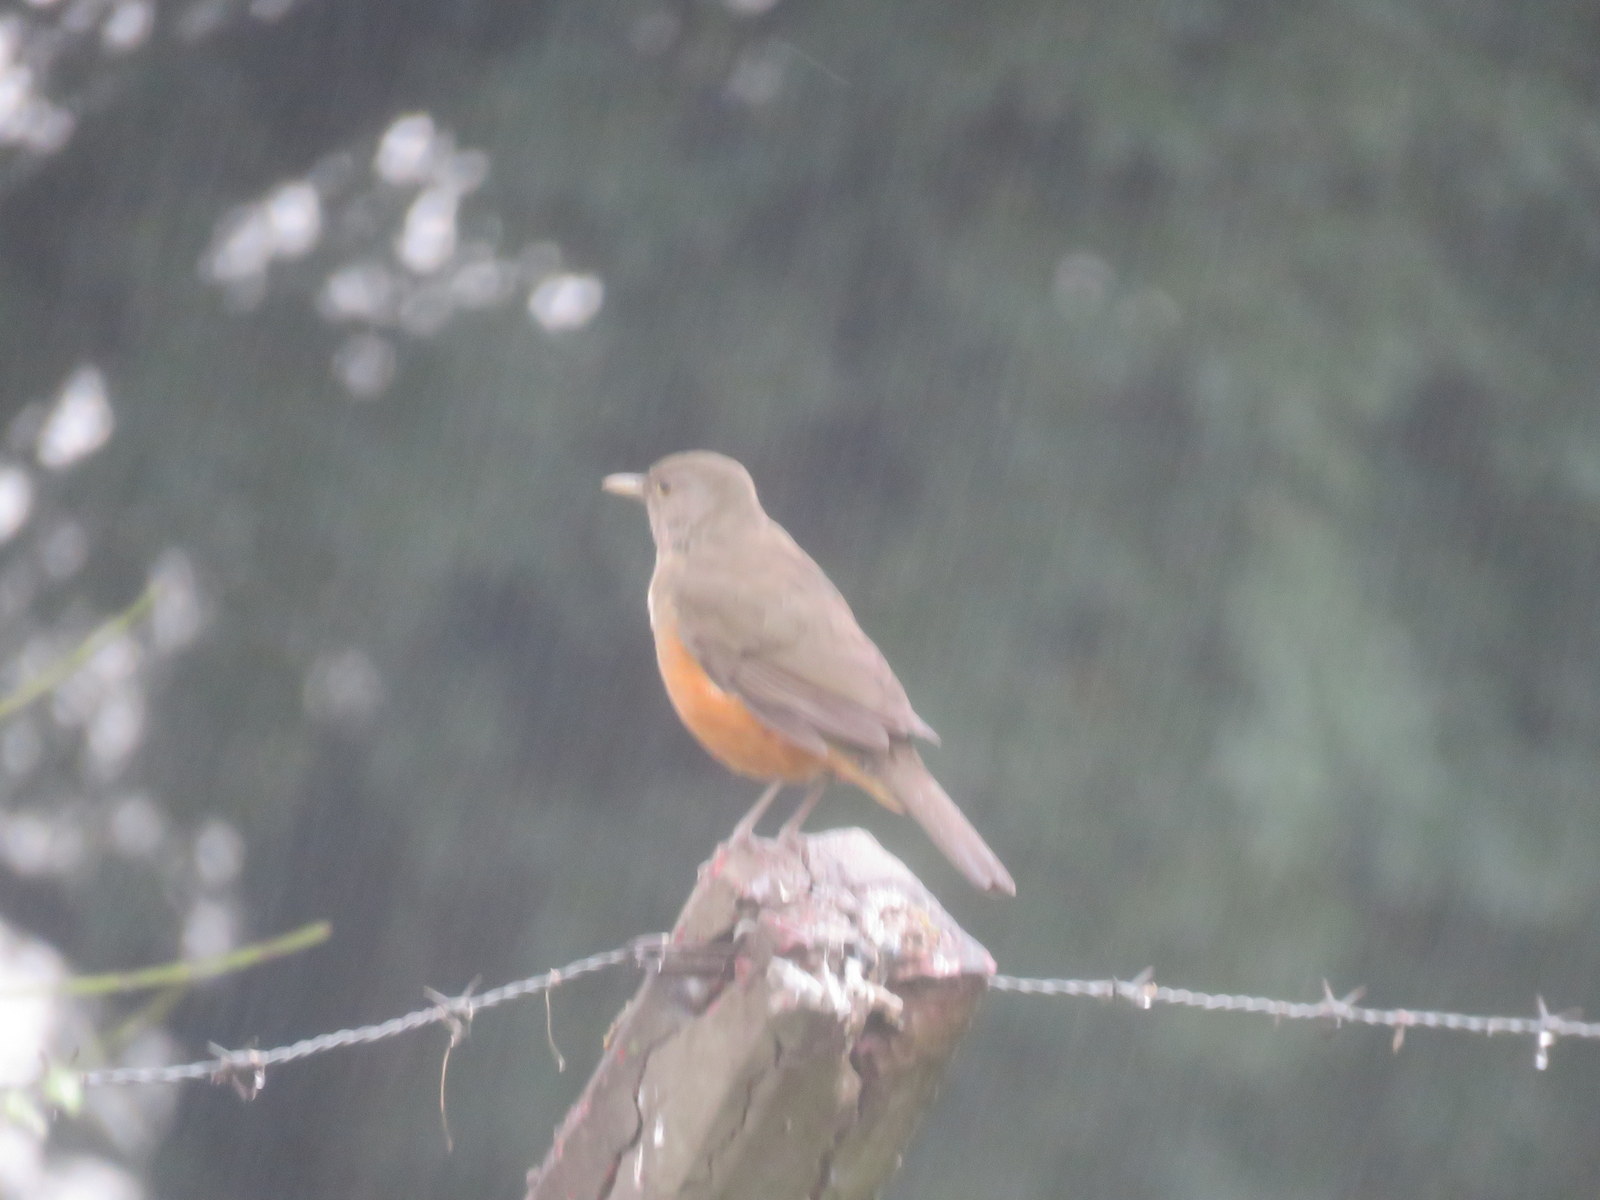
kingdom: Animalia
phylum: Chordata
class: Aves
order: Passeriformes
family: Turdidae
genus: Turdus
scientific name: Turdus rufiventris
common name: Rufous-bellied thrush
